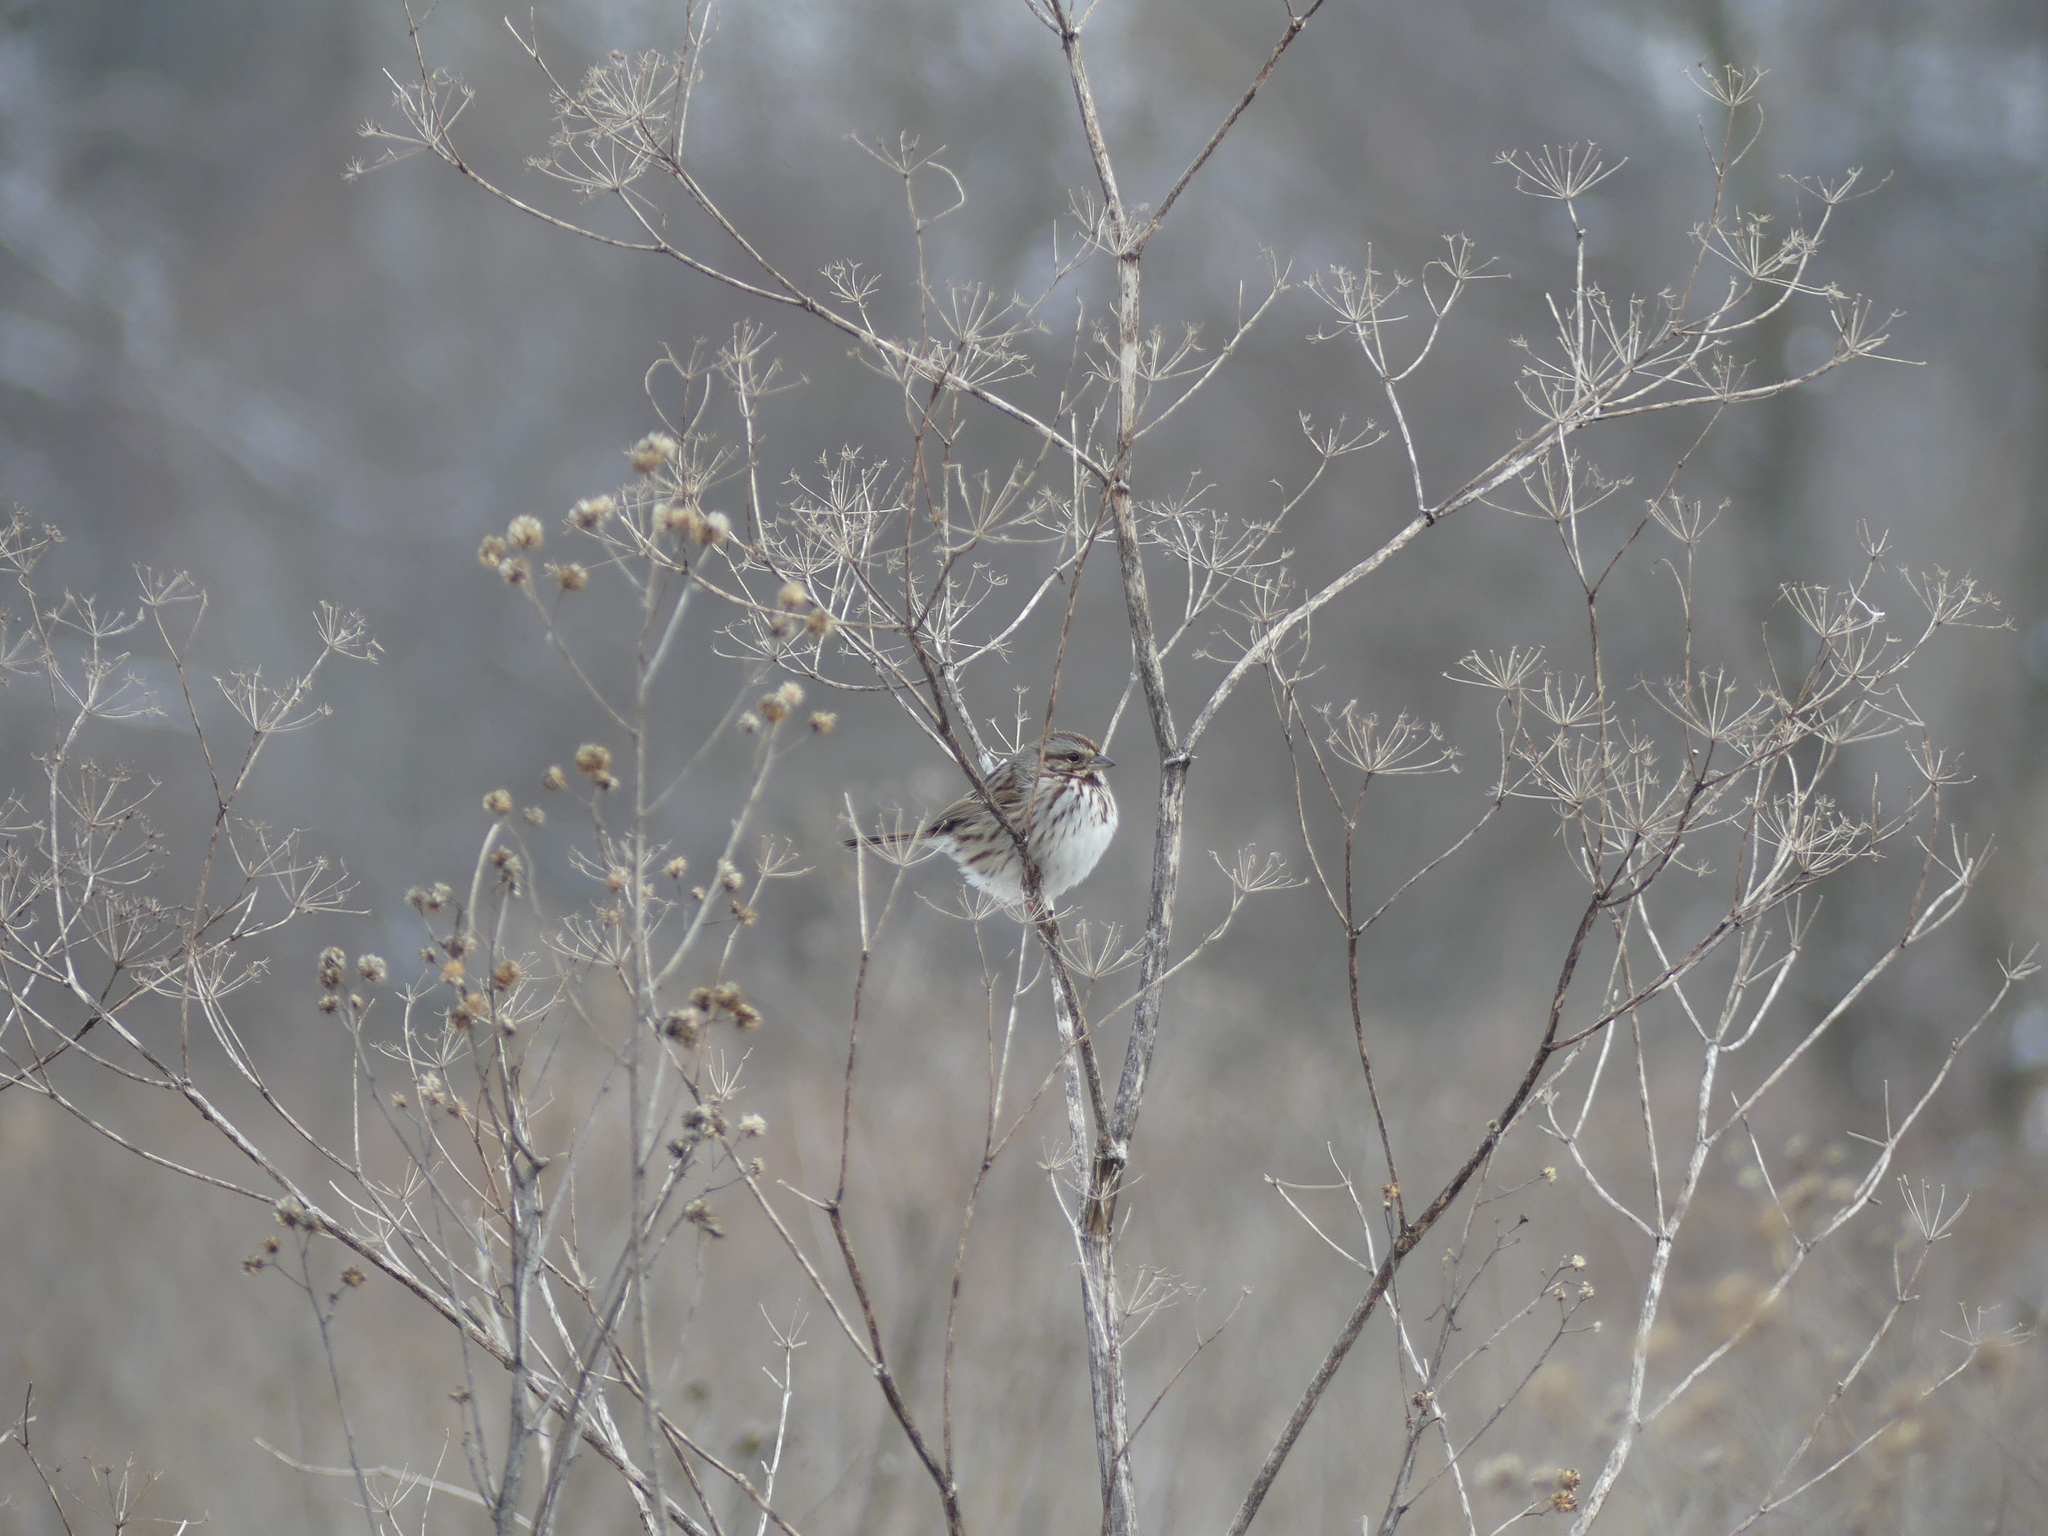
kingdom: Animalia
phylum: Chordata
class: Aves
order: Passeriformes
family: Passerellidae
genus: Melospiza
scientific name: Melospiza melodia
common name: Song sparrow
